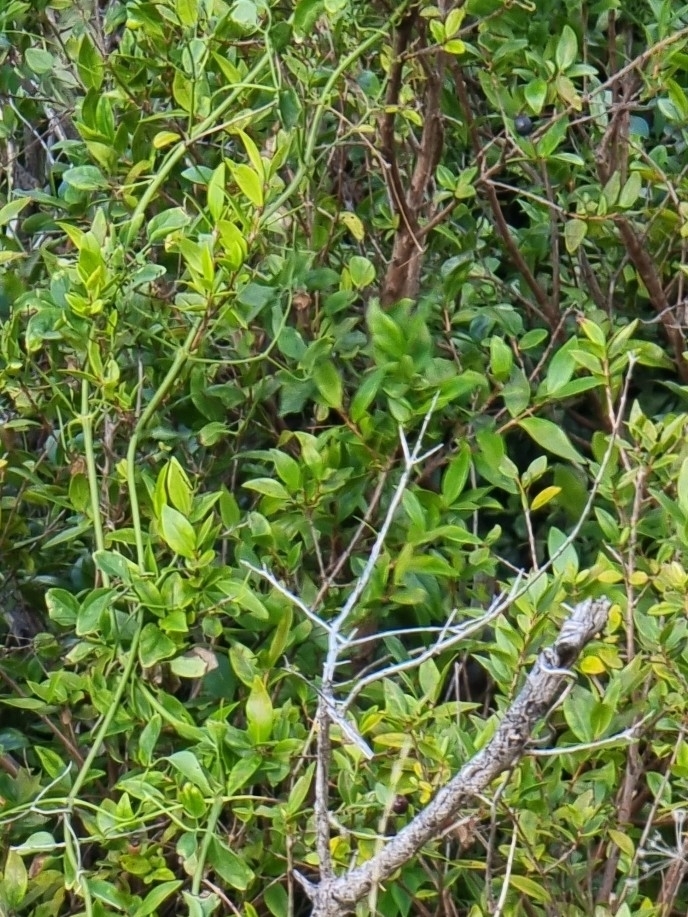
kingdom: Plantae
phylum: Tracheophyta
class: Magnoliopsida
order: Myrtales
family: Myrtaceae
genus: Myrtus
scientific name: Myrtus communis
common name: Myrtle
